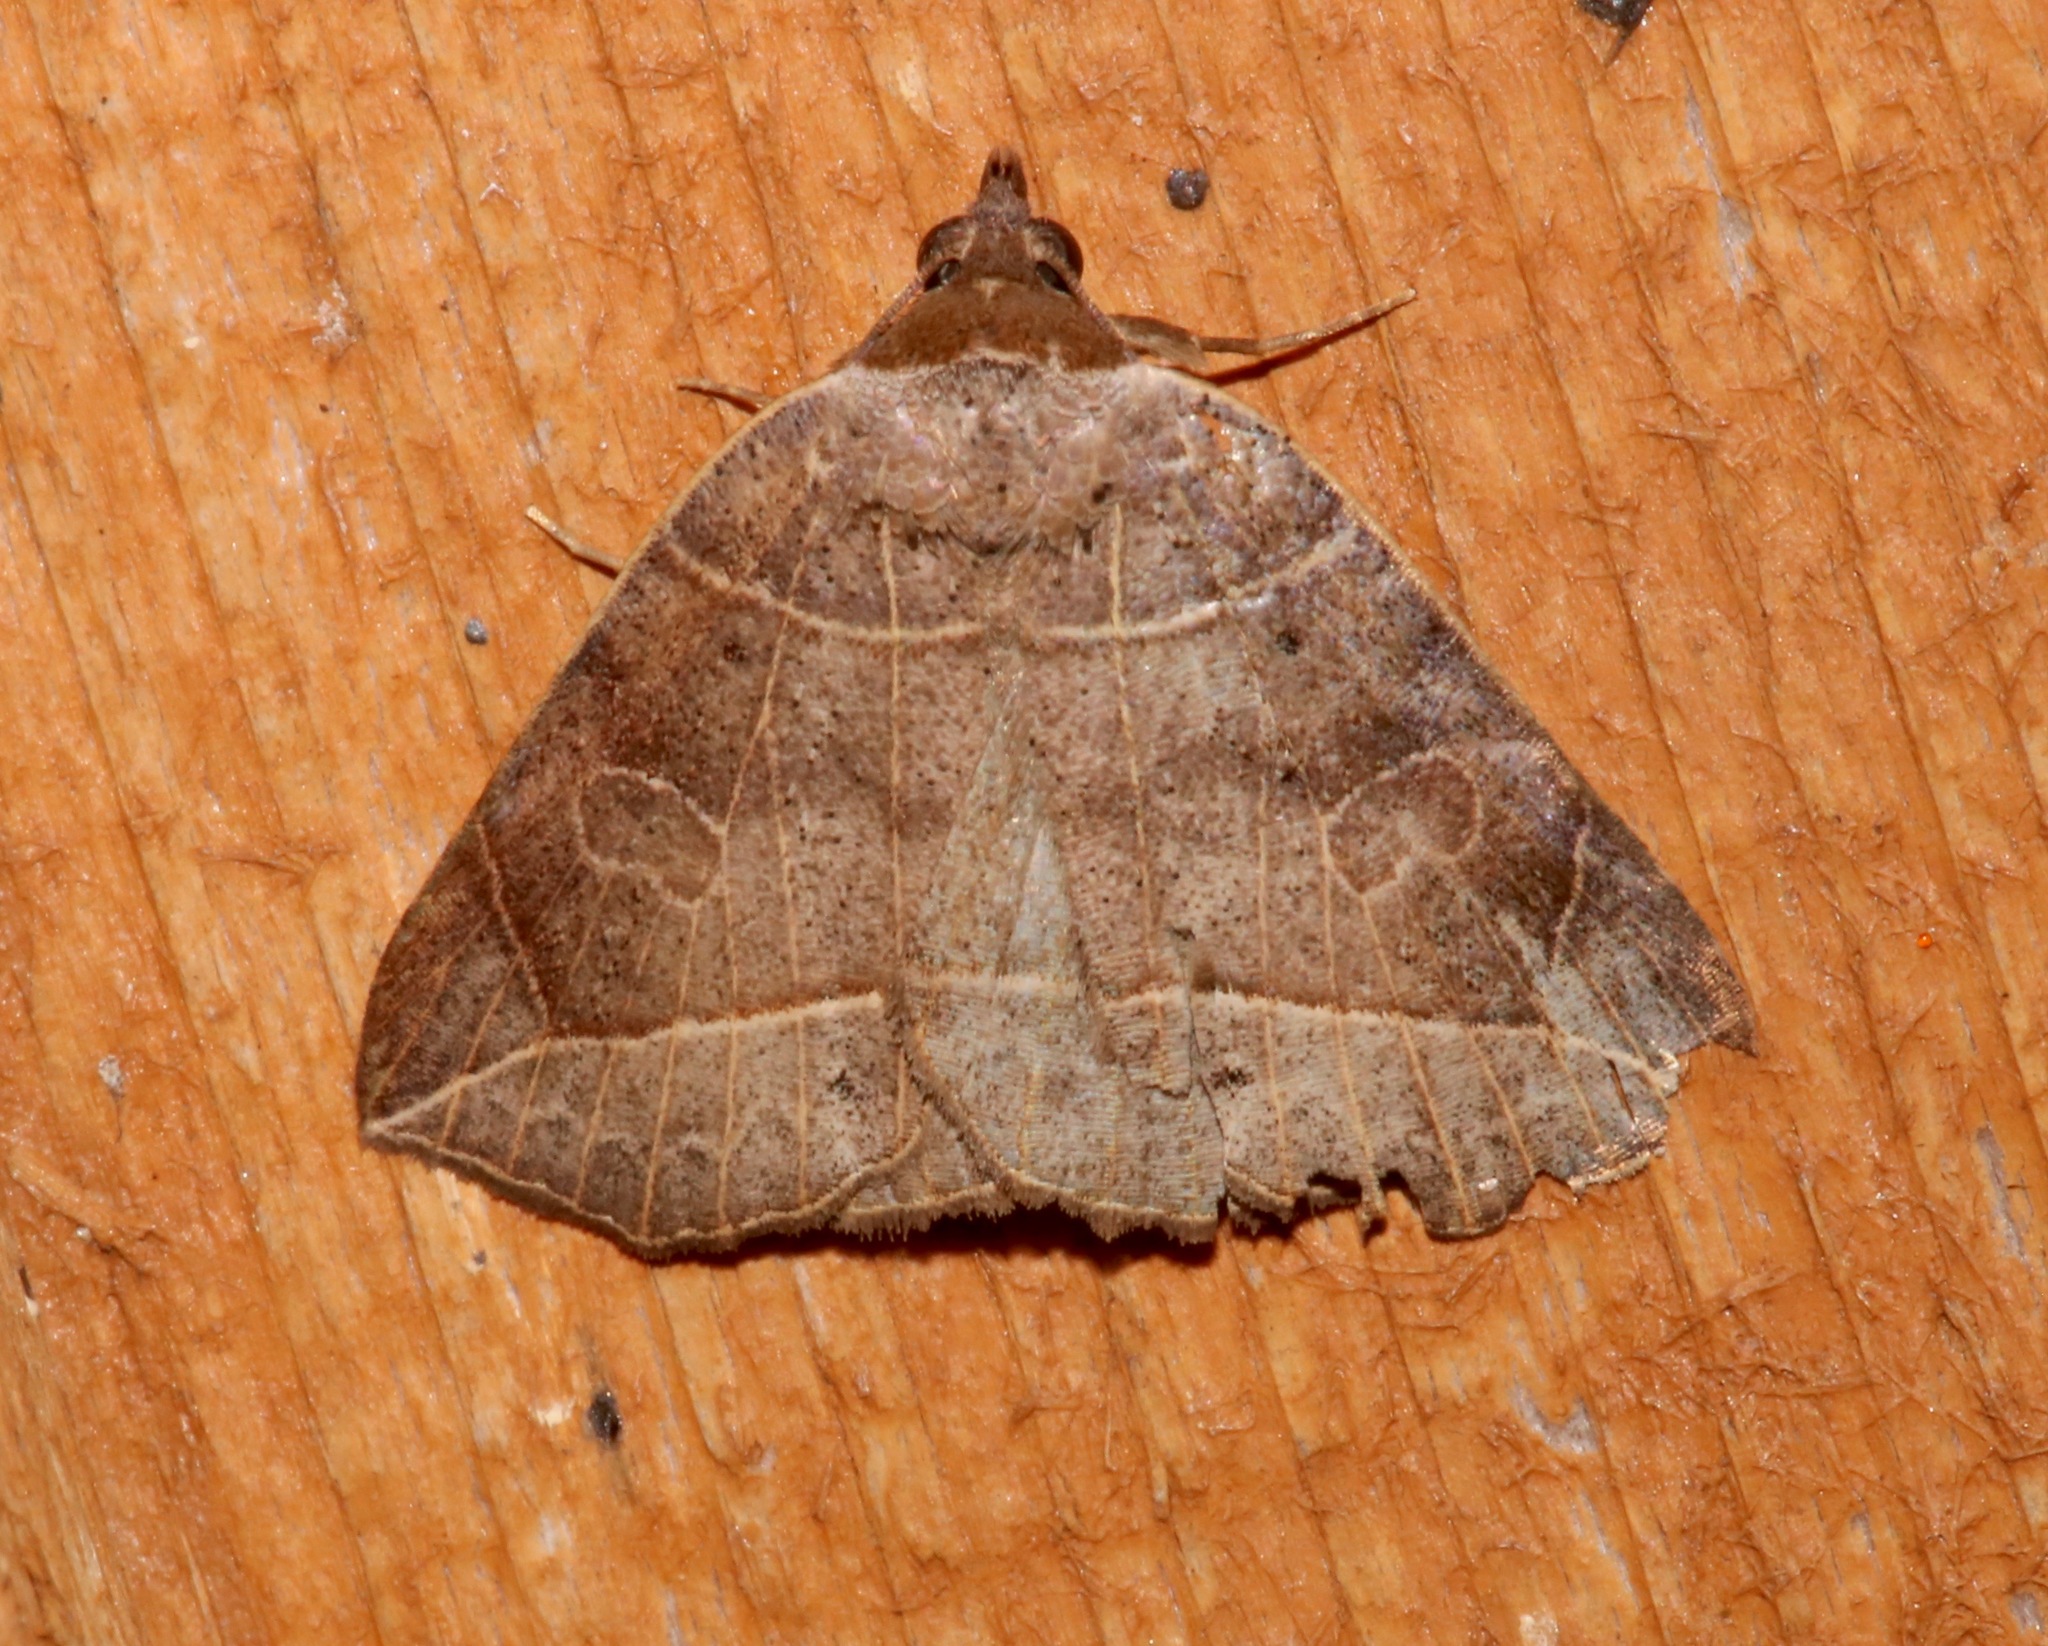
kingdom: Animalia
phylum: Arthropoda
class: Insecta
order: Lepidoptera
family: Erebidae
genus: Isogona
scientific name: Isogona tenuis
